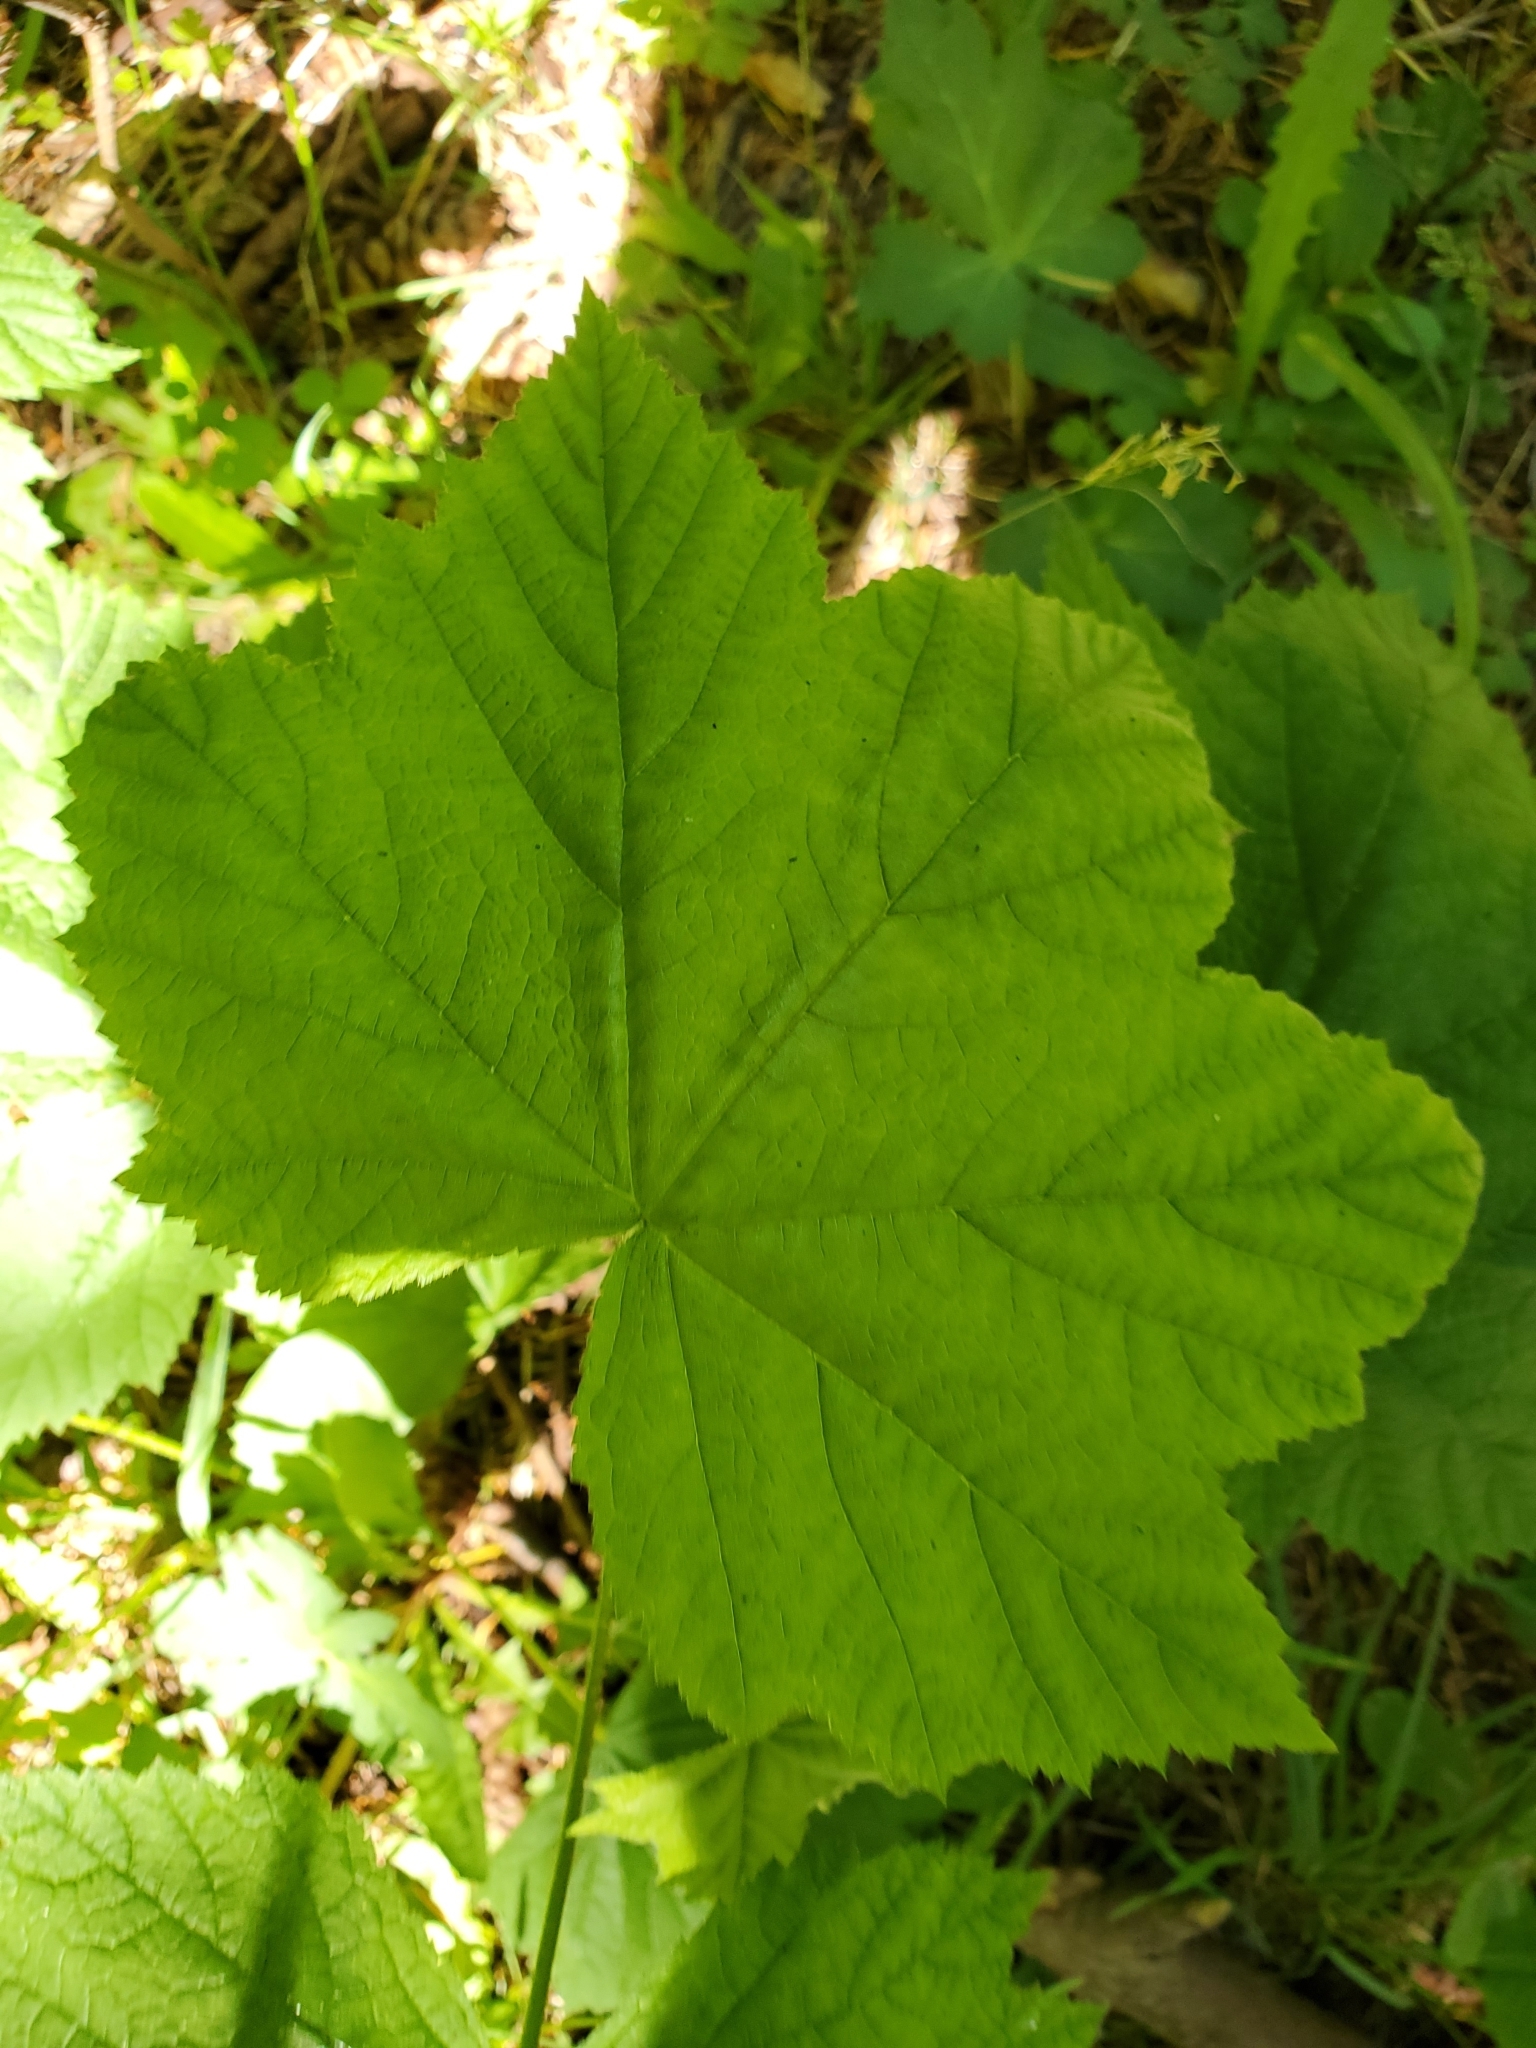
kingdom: Plantae
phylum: Tracheophyta
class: Magnoliopsida
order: Rosales
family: Rosaceae
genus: Rubus
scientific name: Rubus parviflorus
